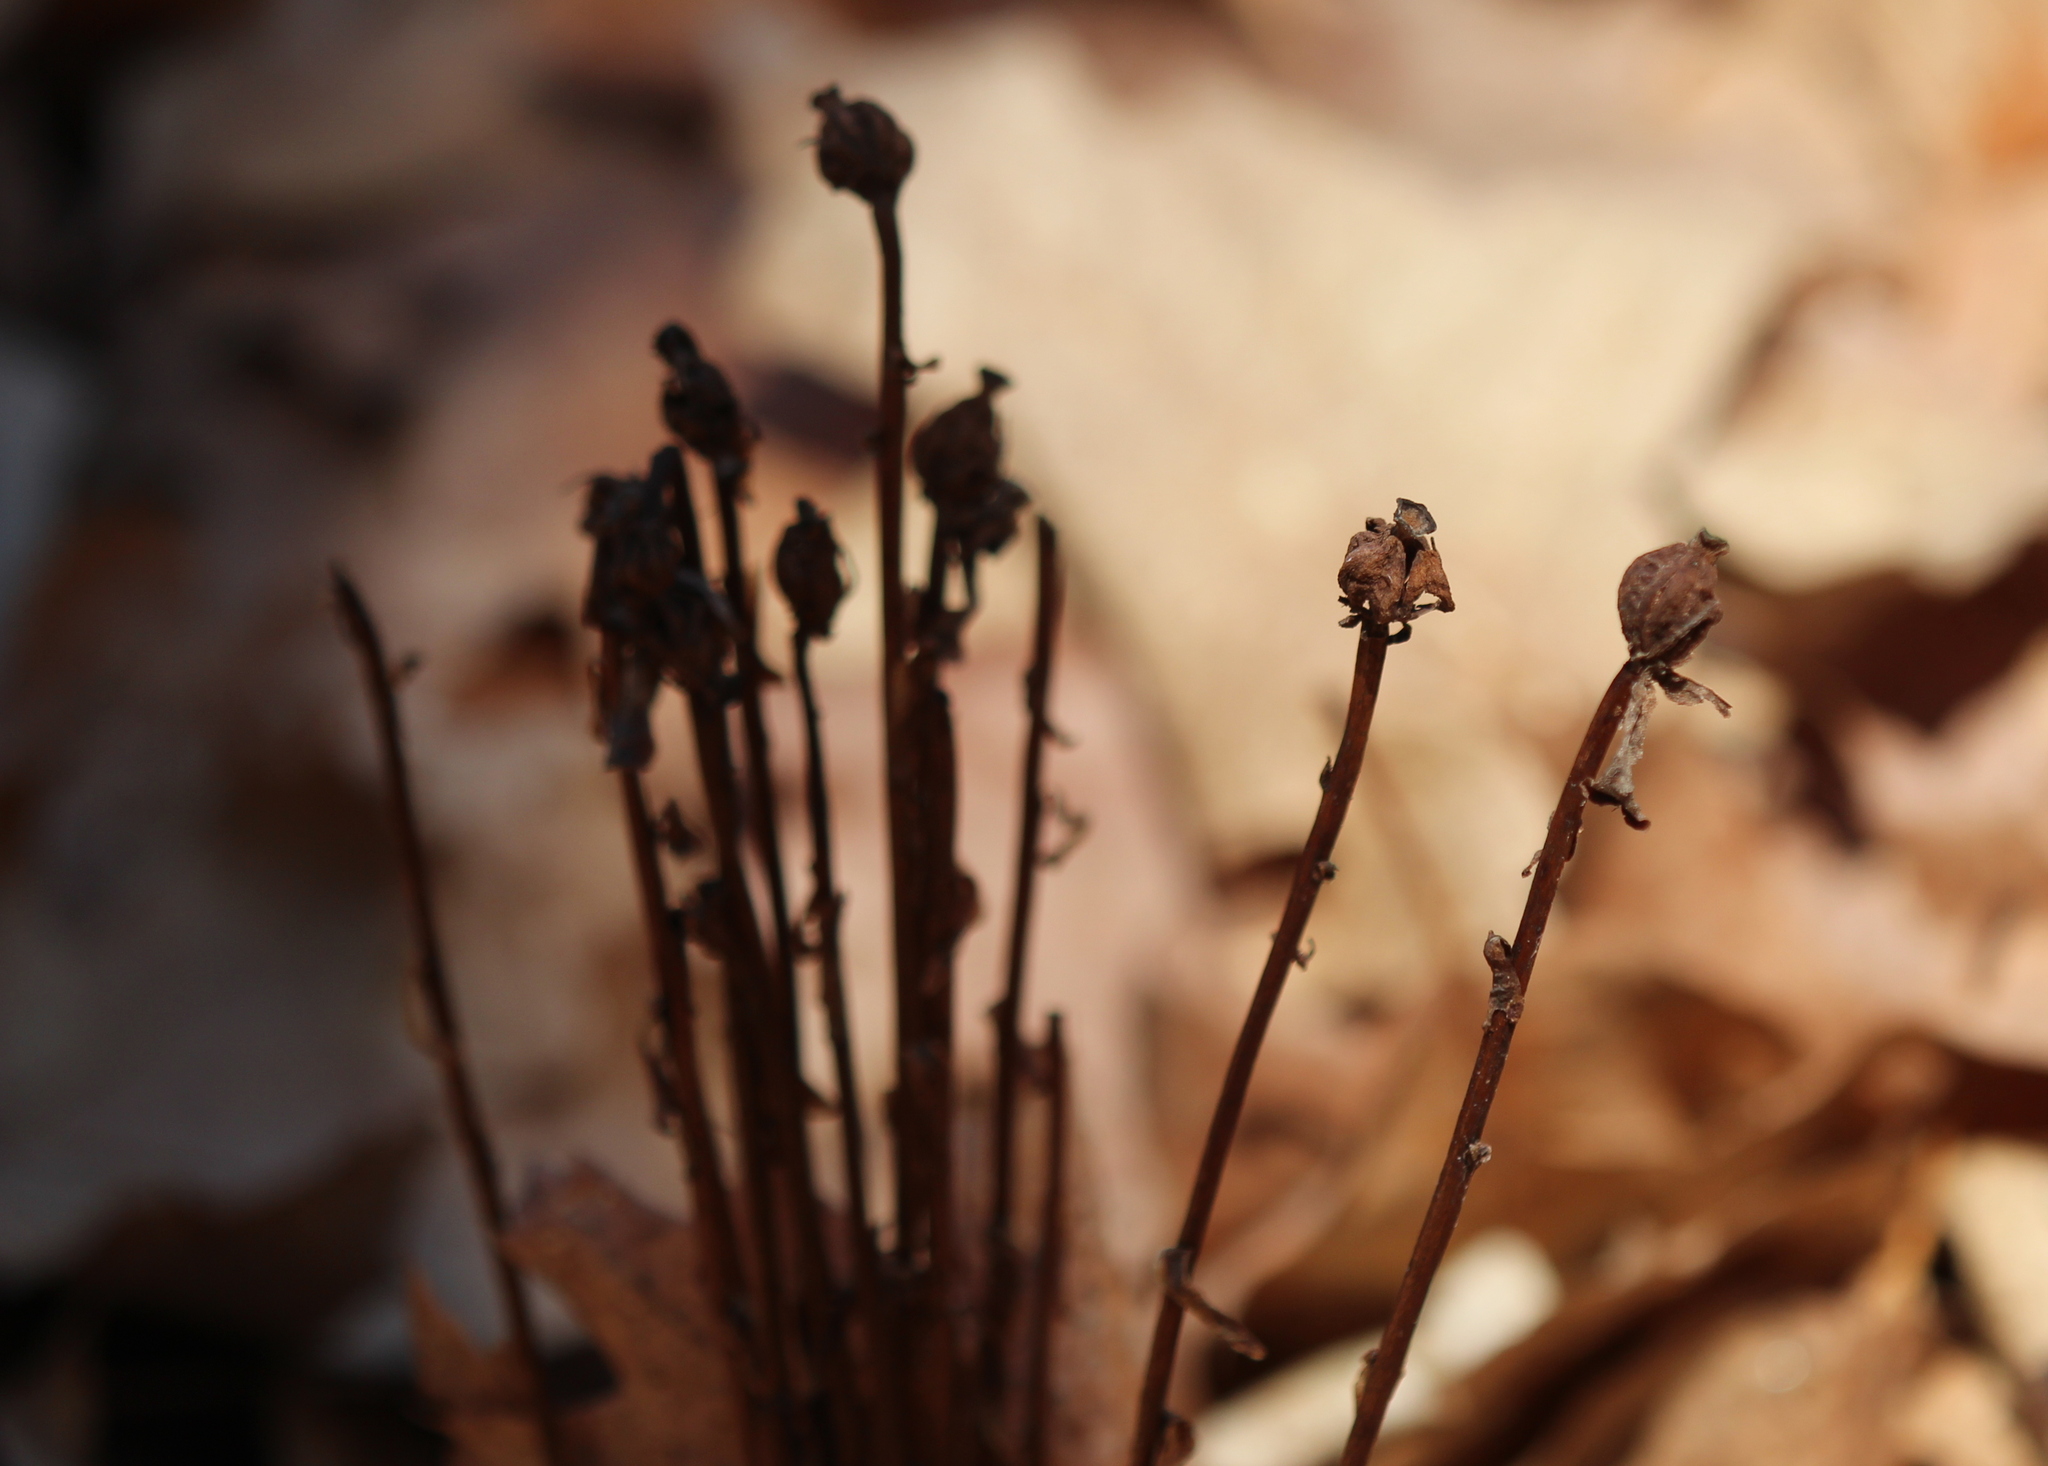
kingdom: Plantae
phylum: Tracheophyta
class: Magnoliopsida
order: Ericales
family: Ericaceae
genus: Monotropa
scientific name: Monotropa uniflora
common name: Convulsion root
